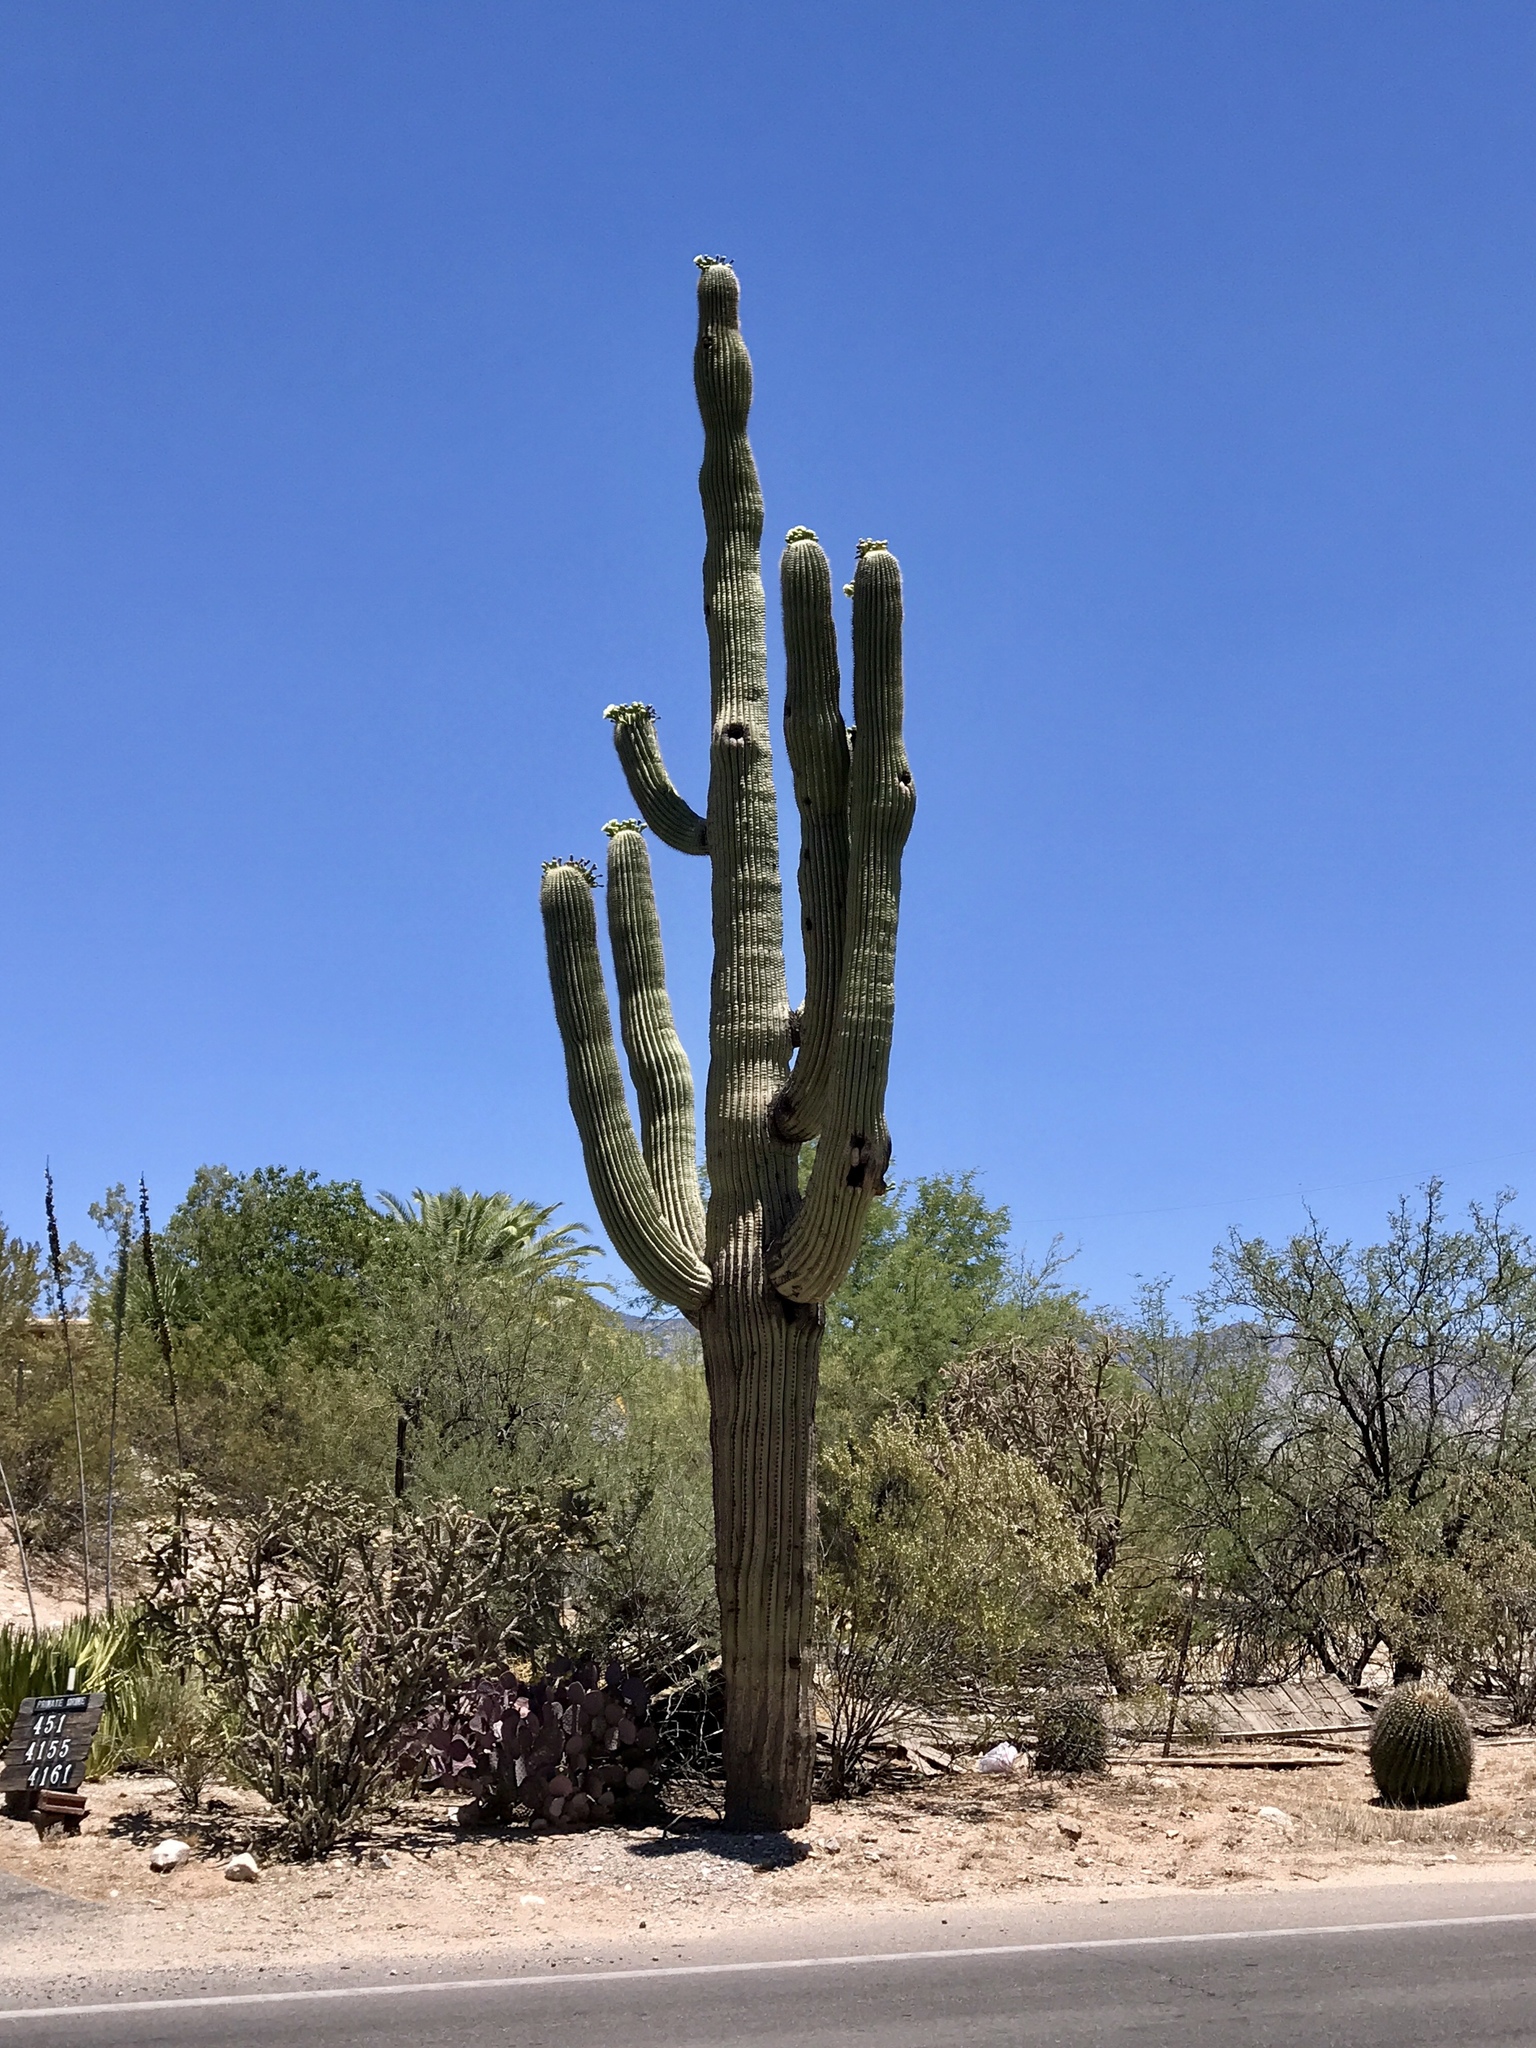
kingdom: Plantae
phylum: Tracheophyta
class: Magnoliopsida
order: Caryophyllales
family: Cactaceae
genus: Carnegiea
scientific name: Carnegiea gigantea
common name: Saguaro
